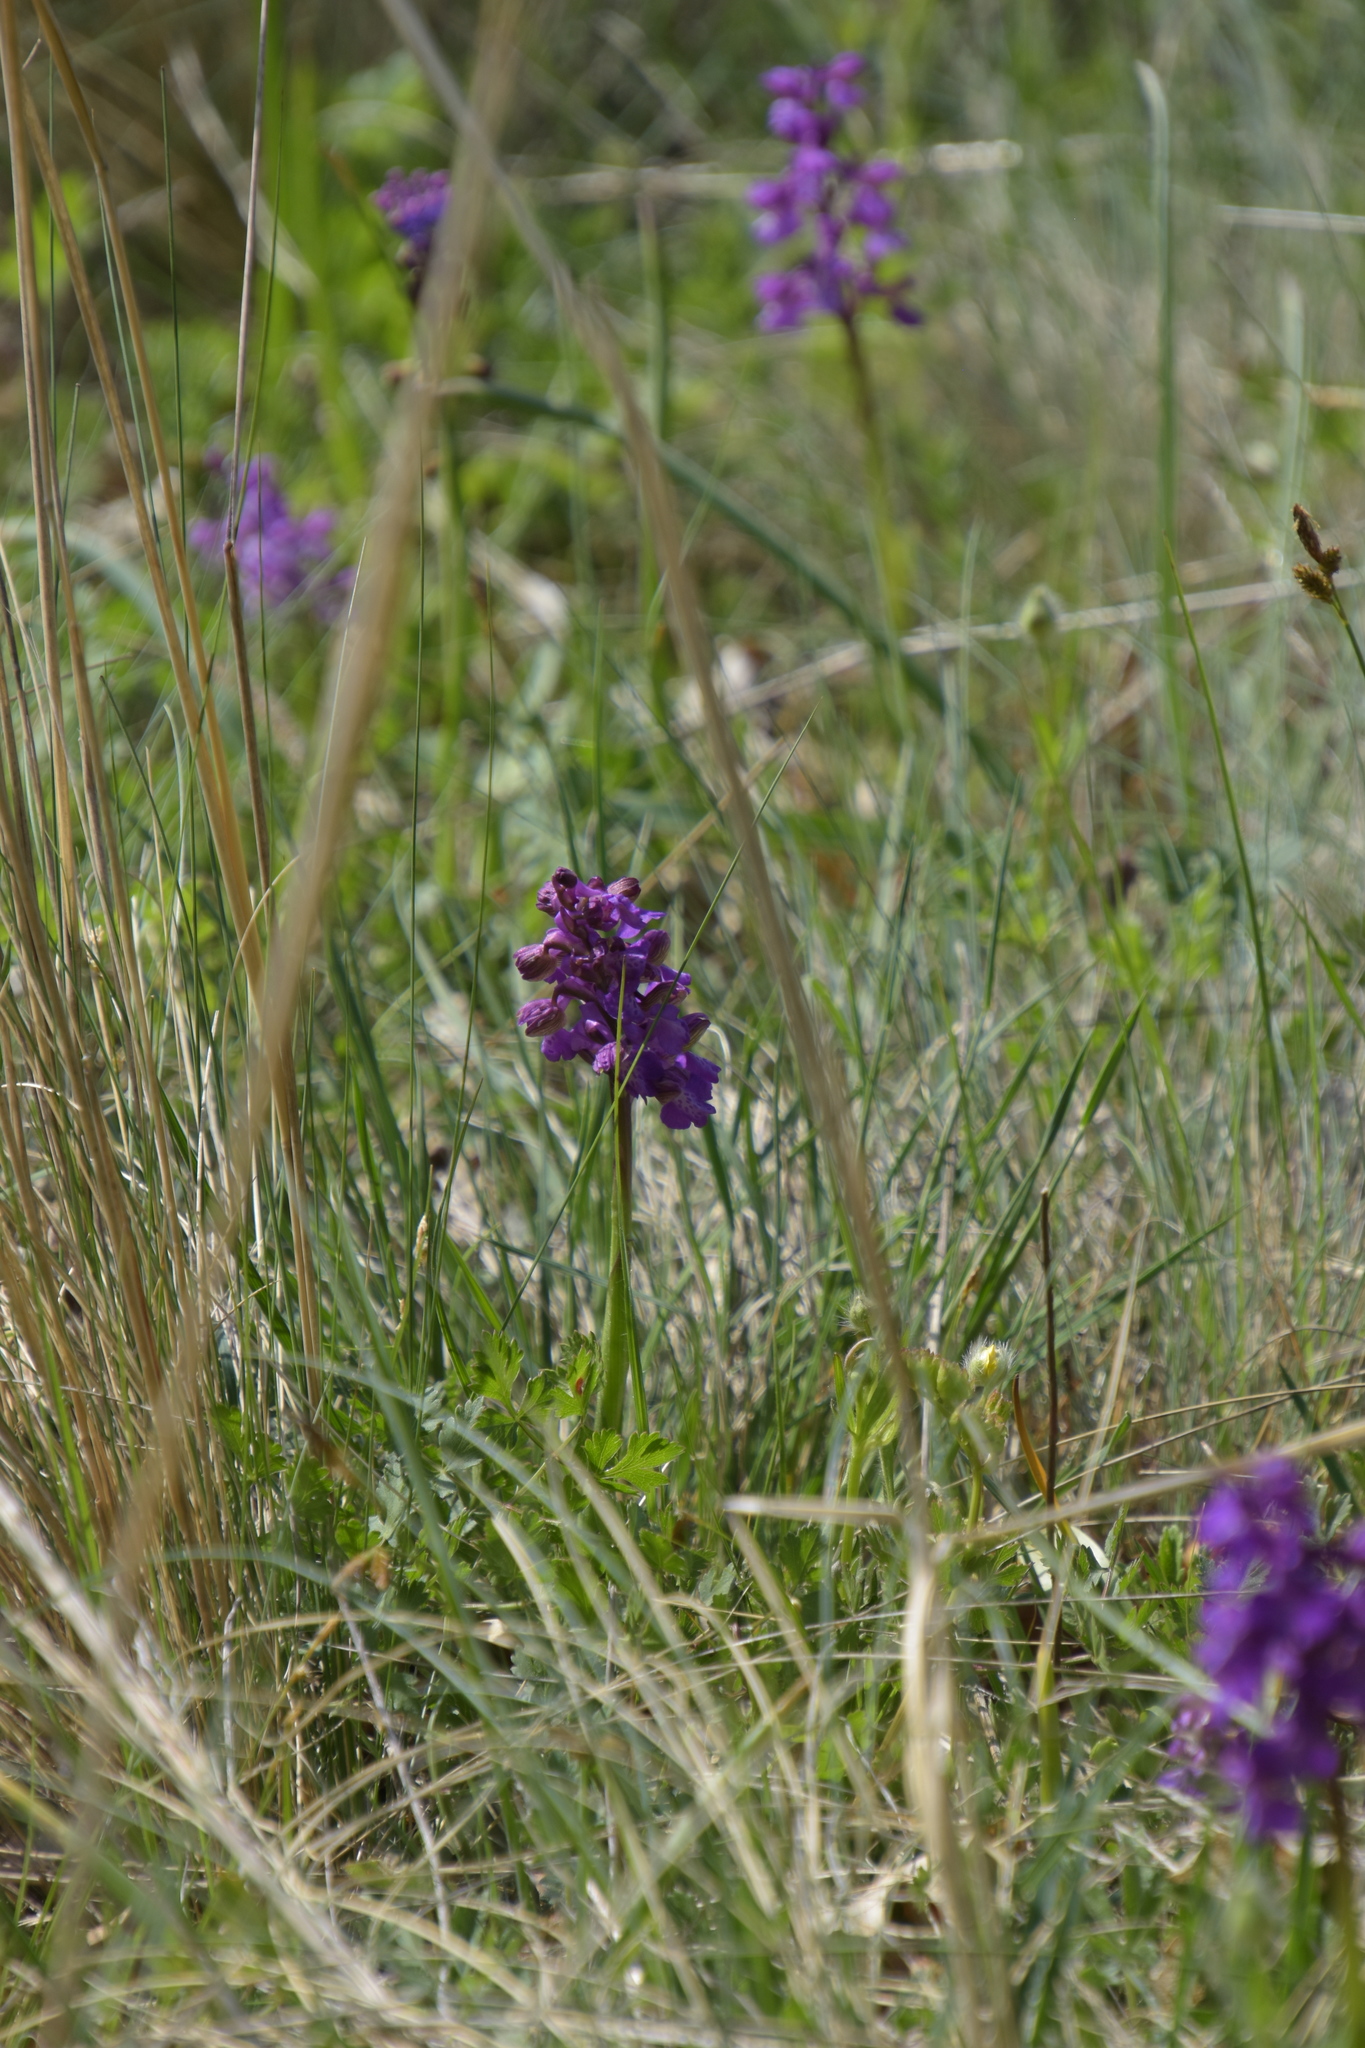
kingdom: Plantae
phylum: Tracheophyta
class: Liliopsida
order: Asparagales
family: Orchidaceae
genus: Anacamptis
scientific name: Anacamptis morio
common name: Green-winged orchid
